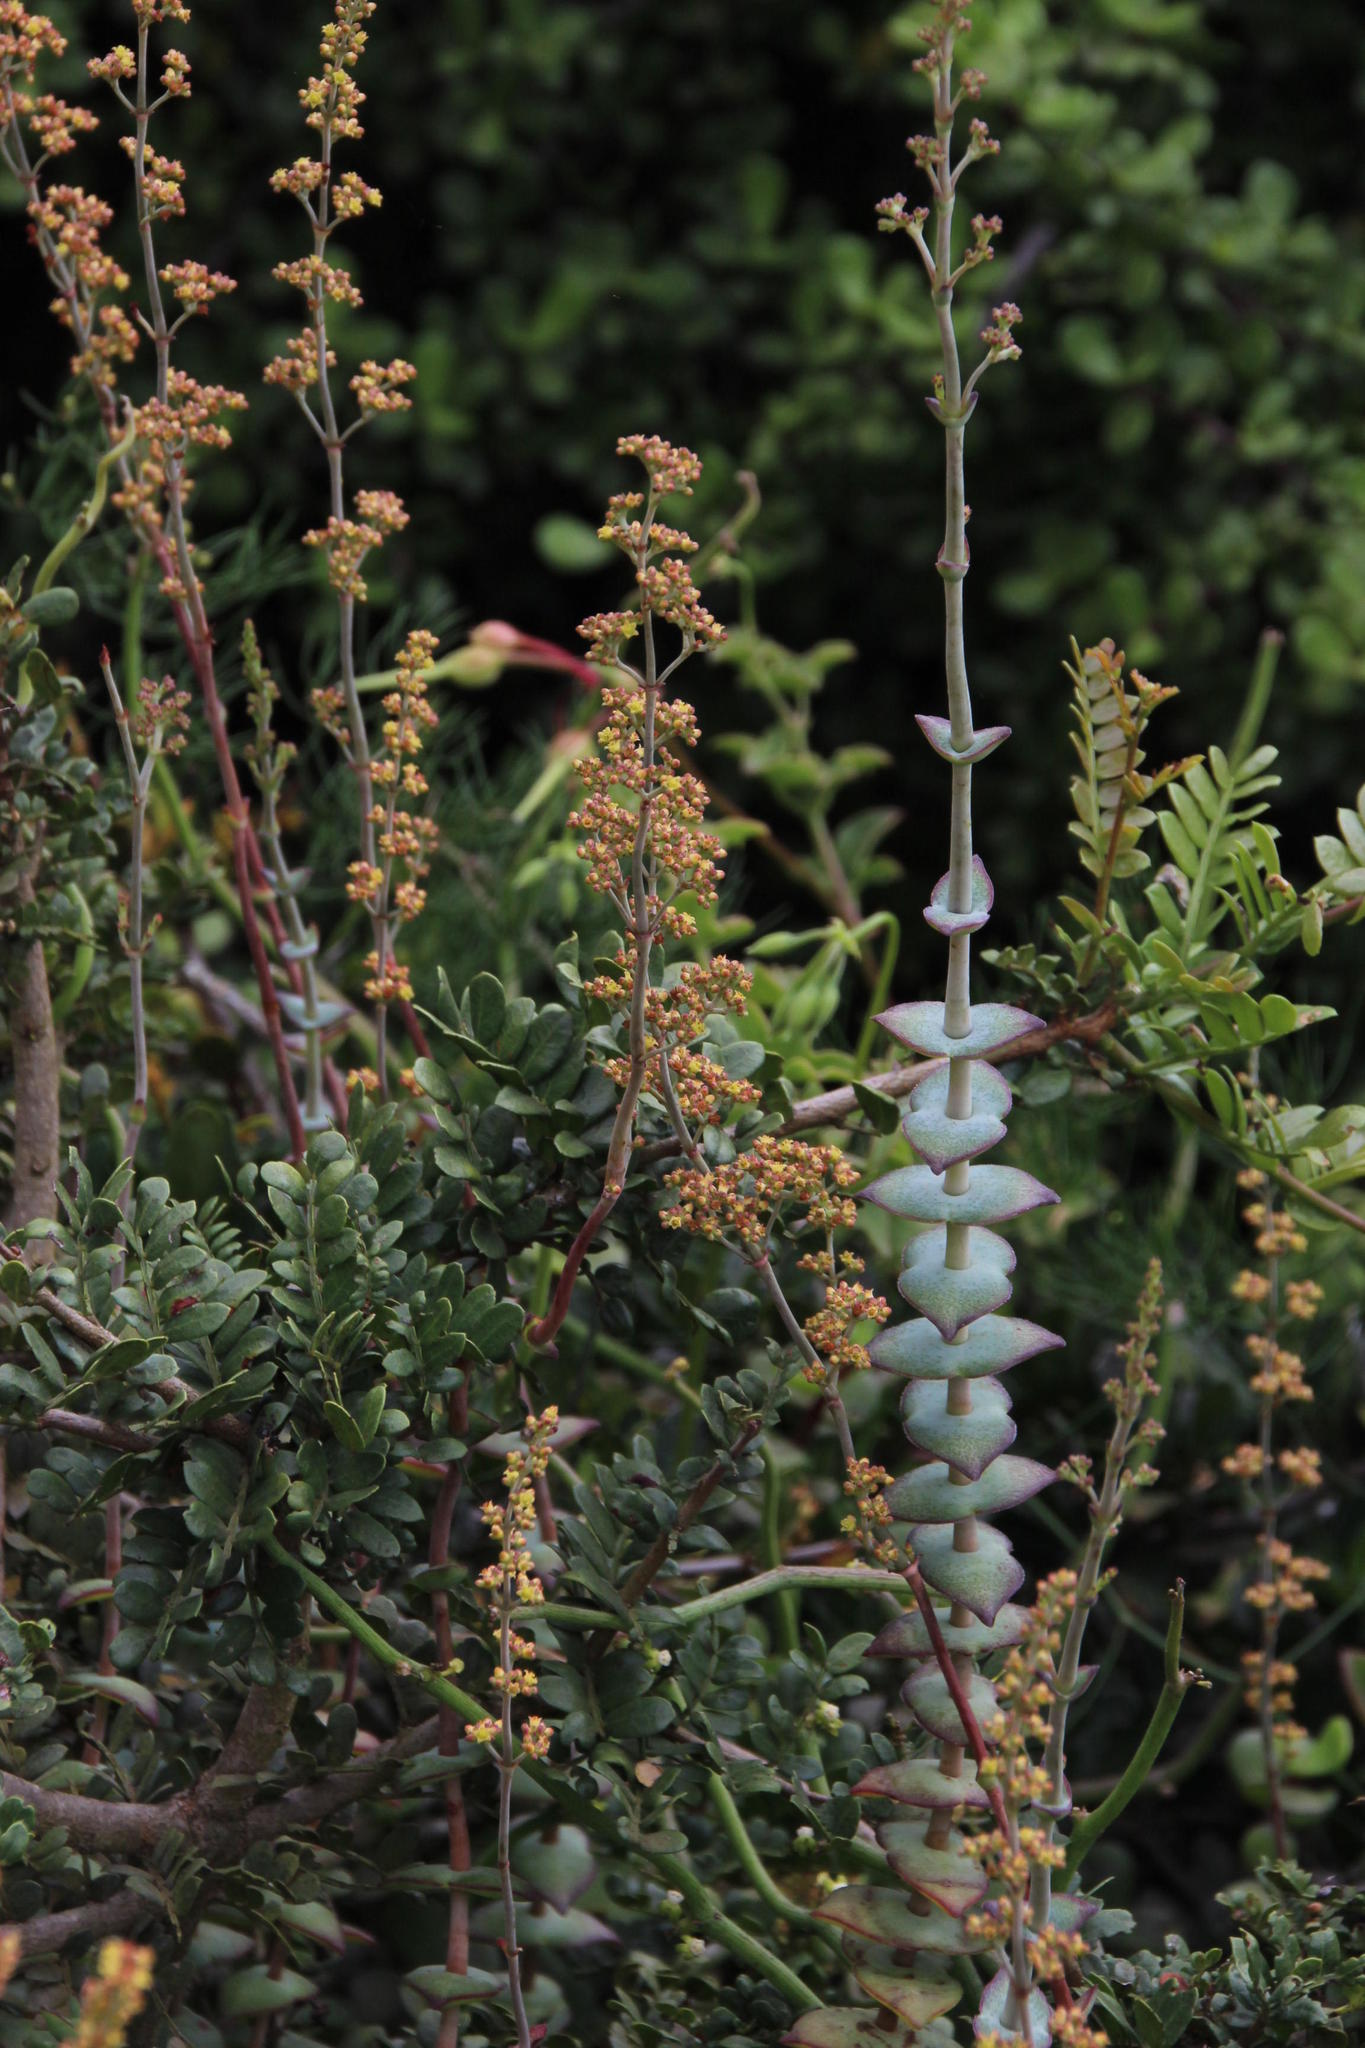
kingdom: Plantae
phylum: Tracheophyta
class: Magnoliopsida
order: Saxifragales
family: Crassulaceae
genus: Crassula
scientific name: Crassula perforata
